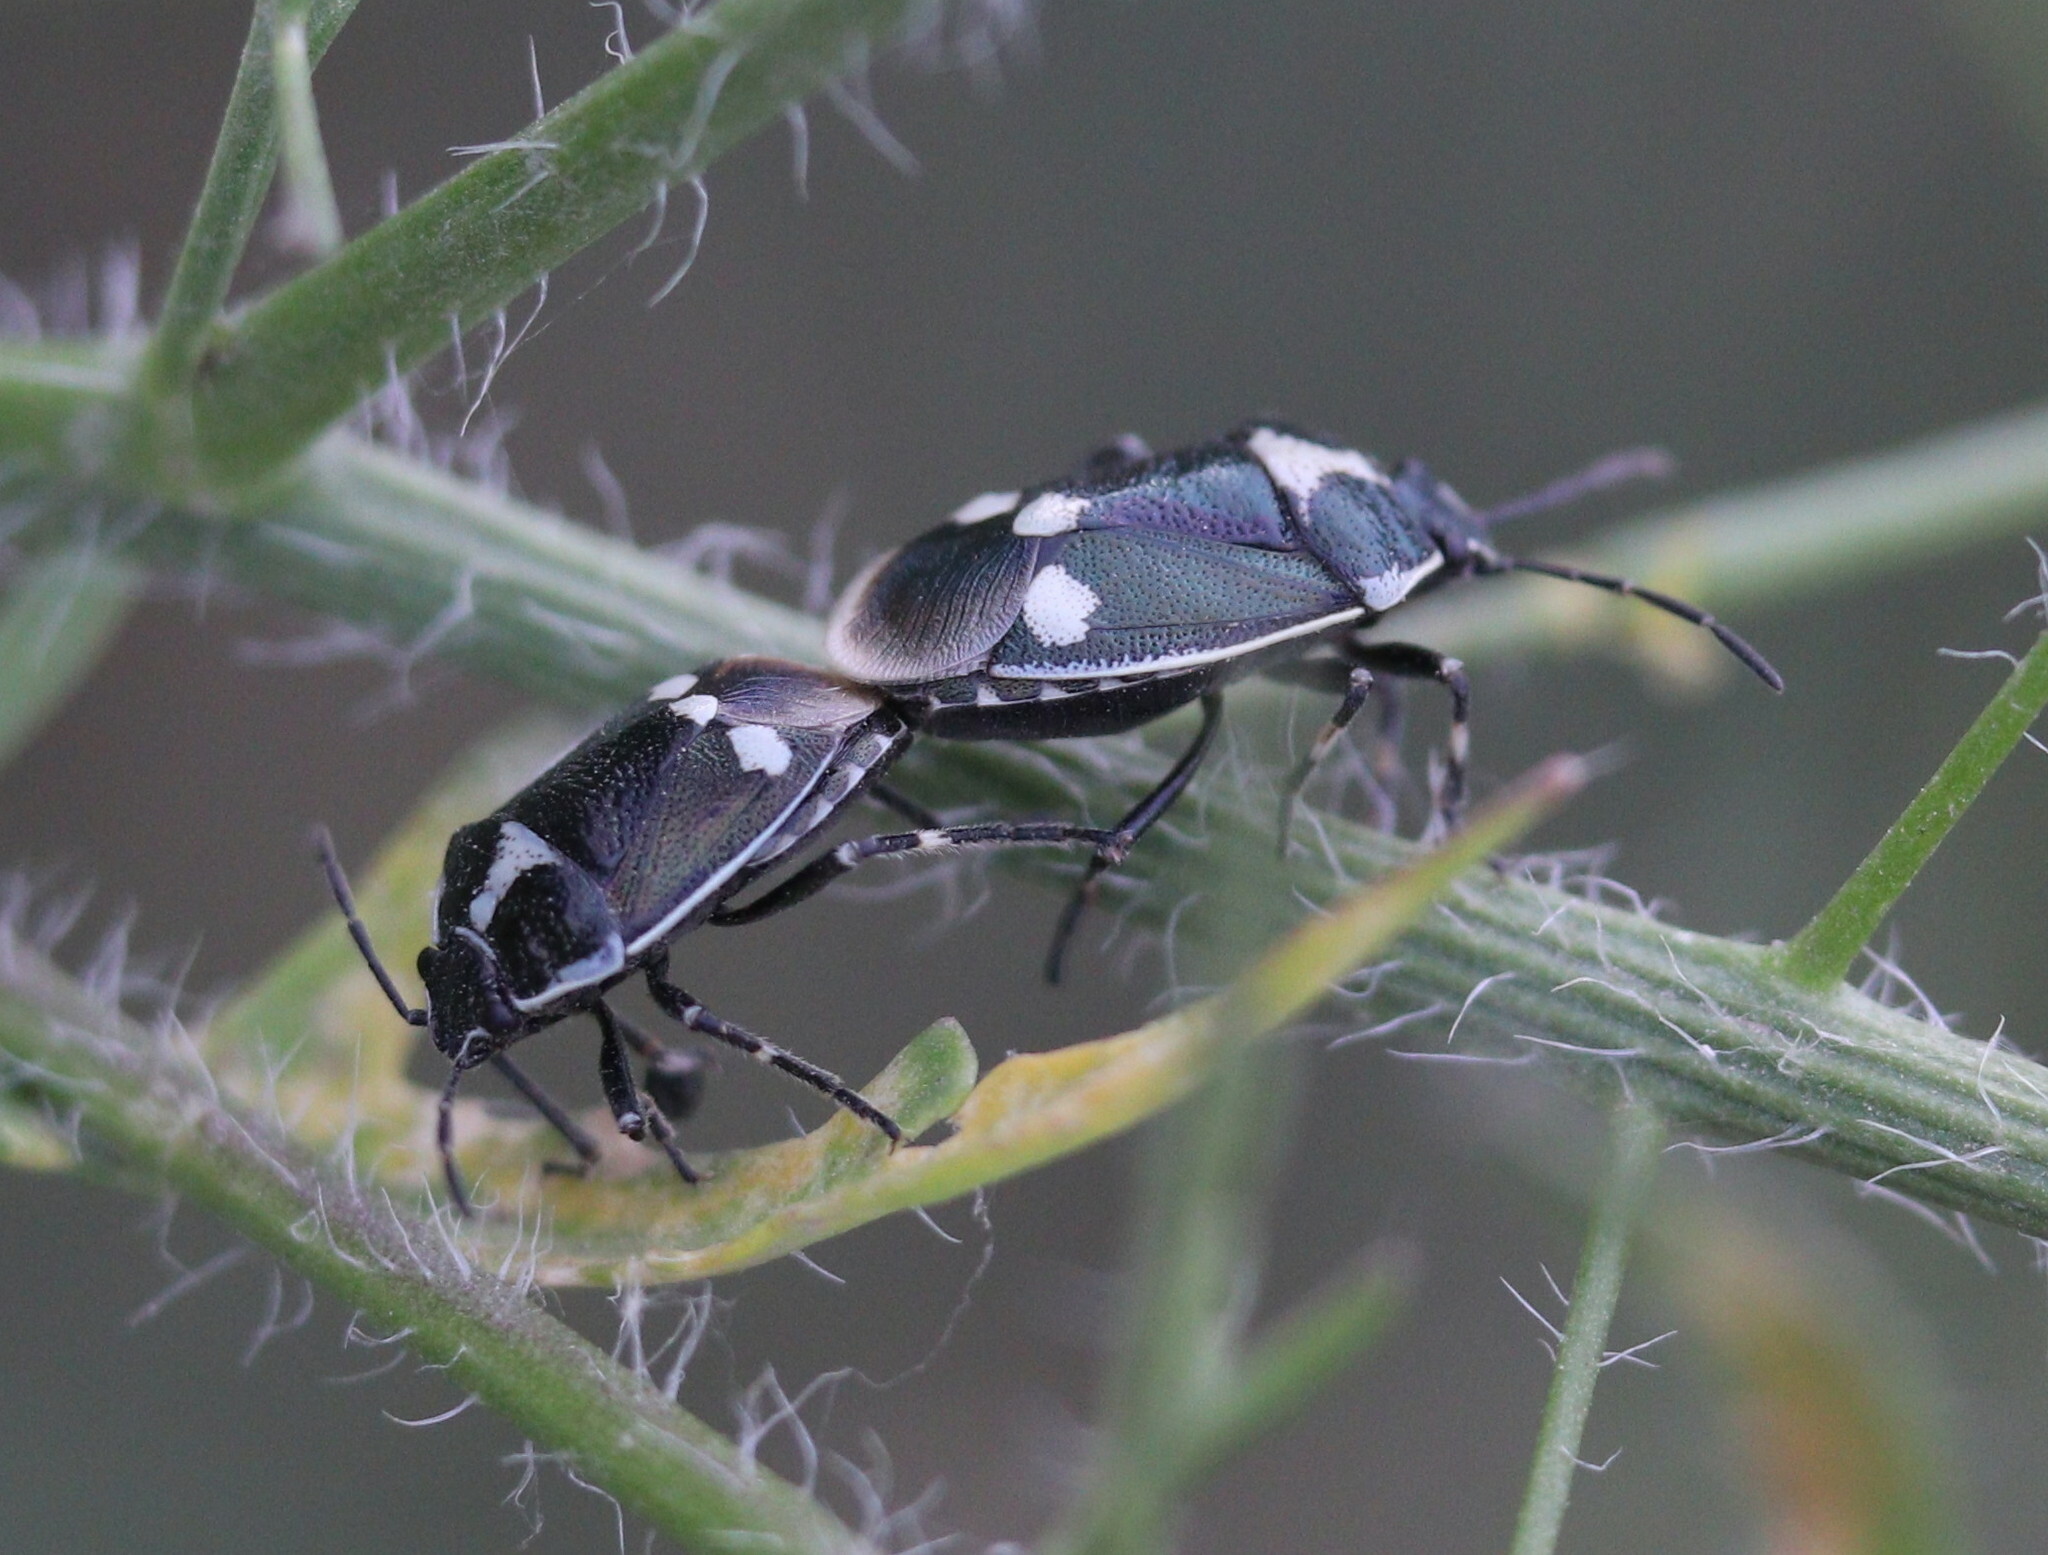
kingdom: Animalia
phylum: Arthropoda
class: Insecta
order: Hemiptera
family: Pentatomidae
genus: Eurydema
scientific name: Eurydema oleracea
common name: Cabbage bug
